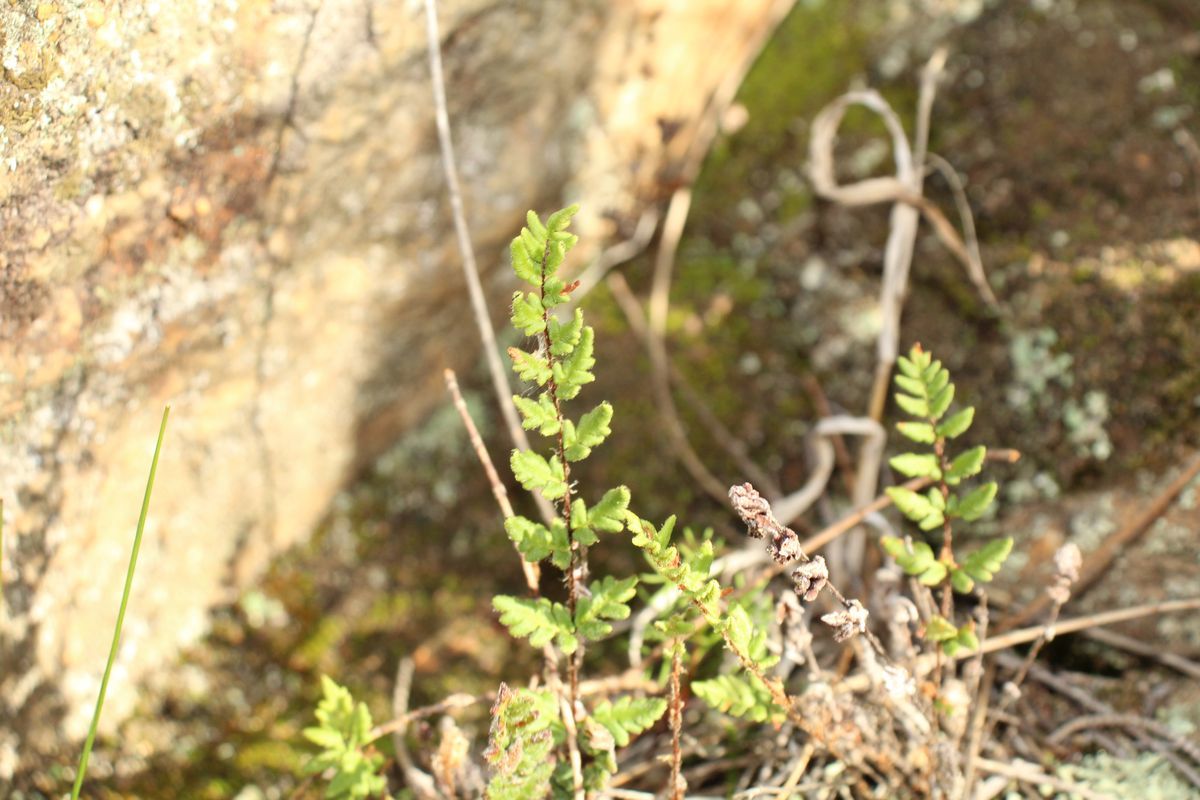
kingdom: Plantae
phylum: Tracheophyta
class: Polypodiopsida
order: Polypodiales
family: Pteridaceae
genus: Cheilanthes
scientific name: Cheilanthes distans
